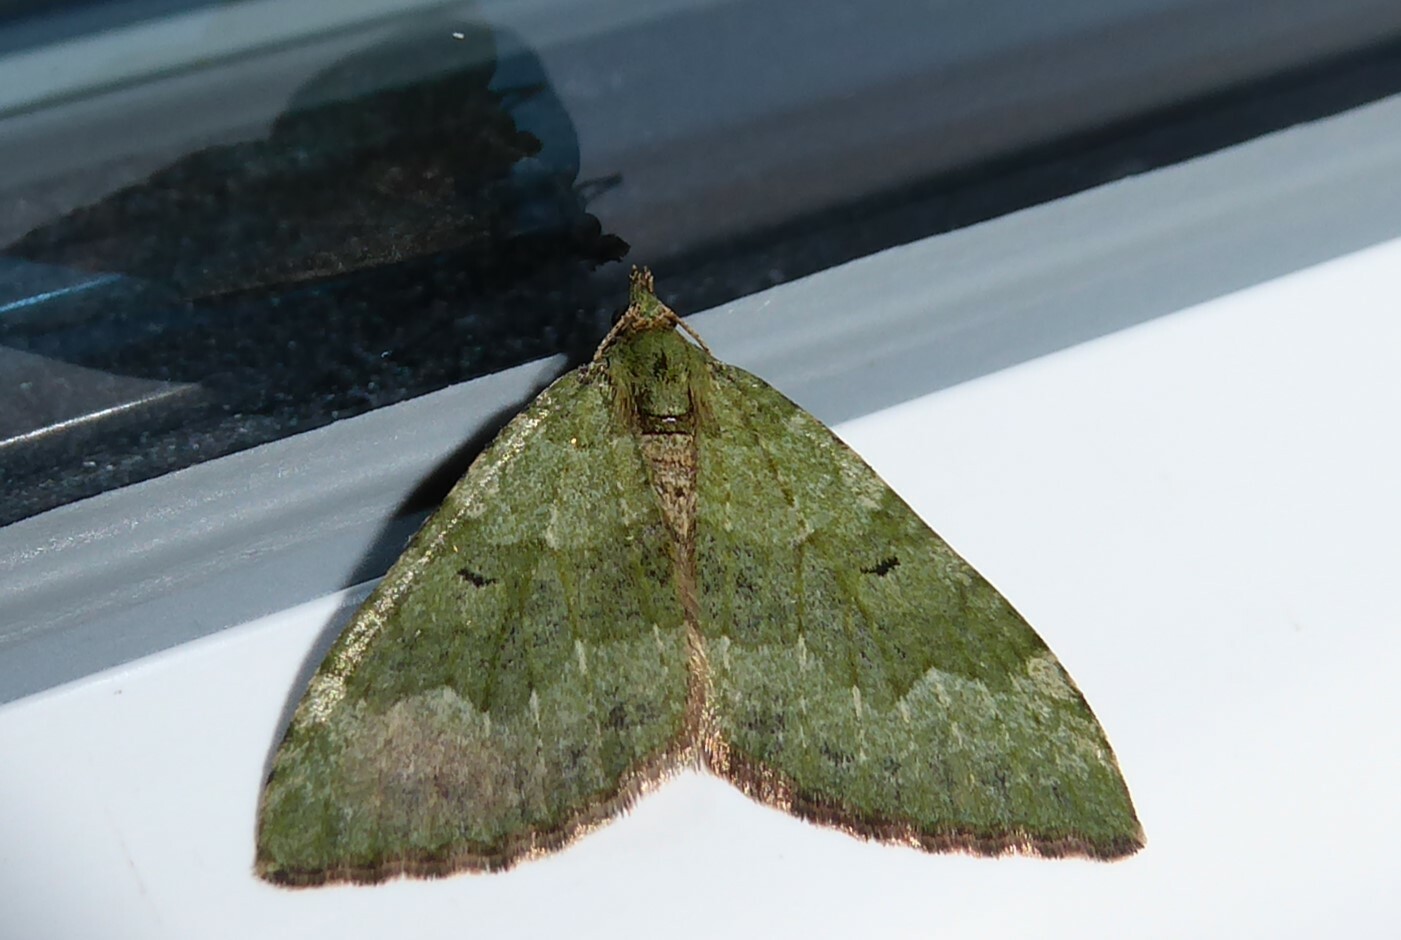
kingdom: Animalia
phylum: Arthropoda
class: Insecta
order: Lepidoptera
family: Geometridae
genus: Epyaxa
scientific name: Epyaxa rosearia
